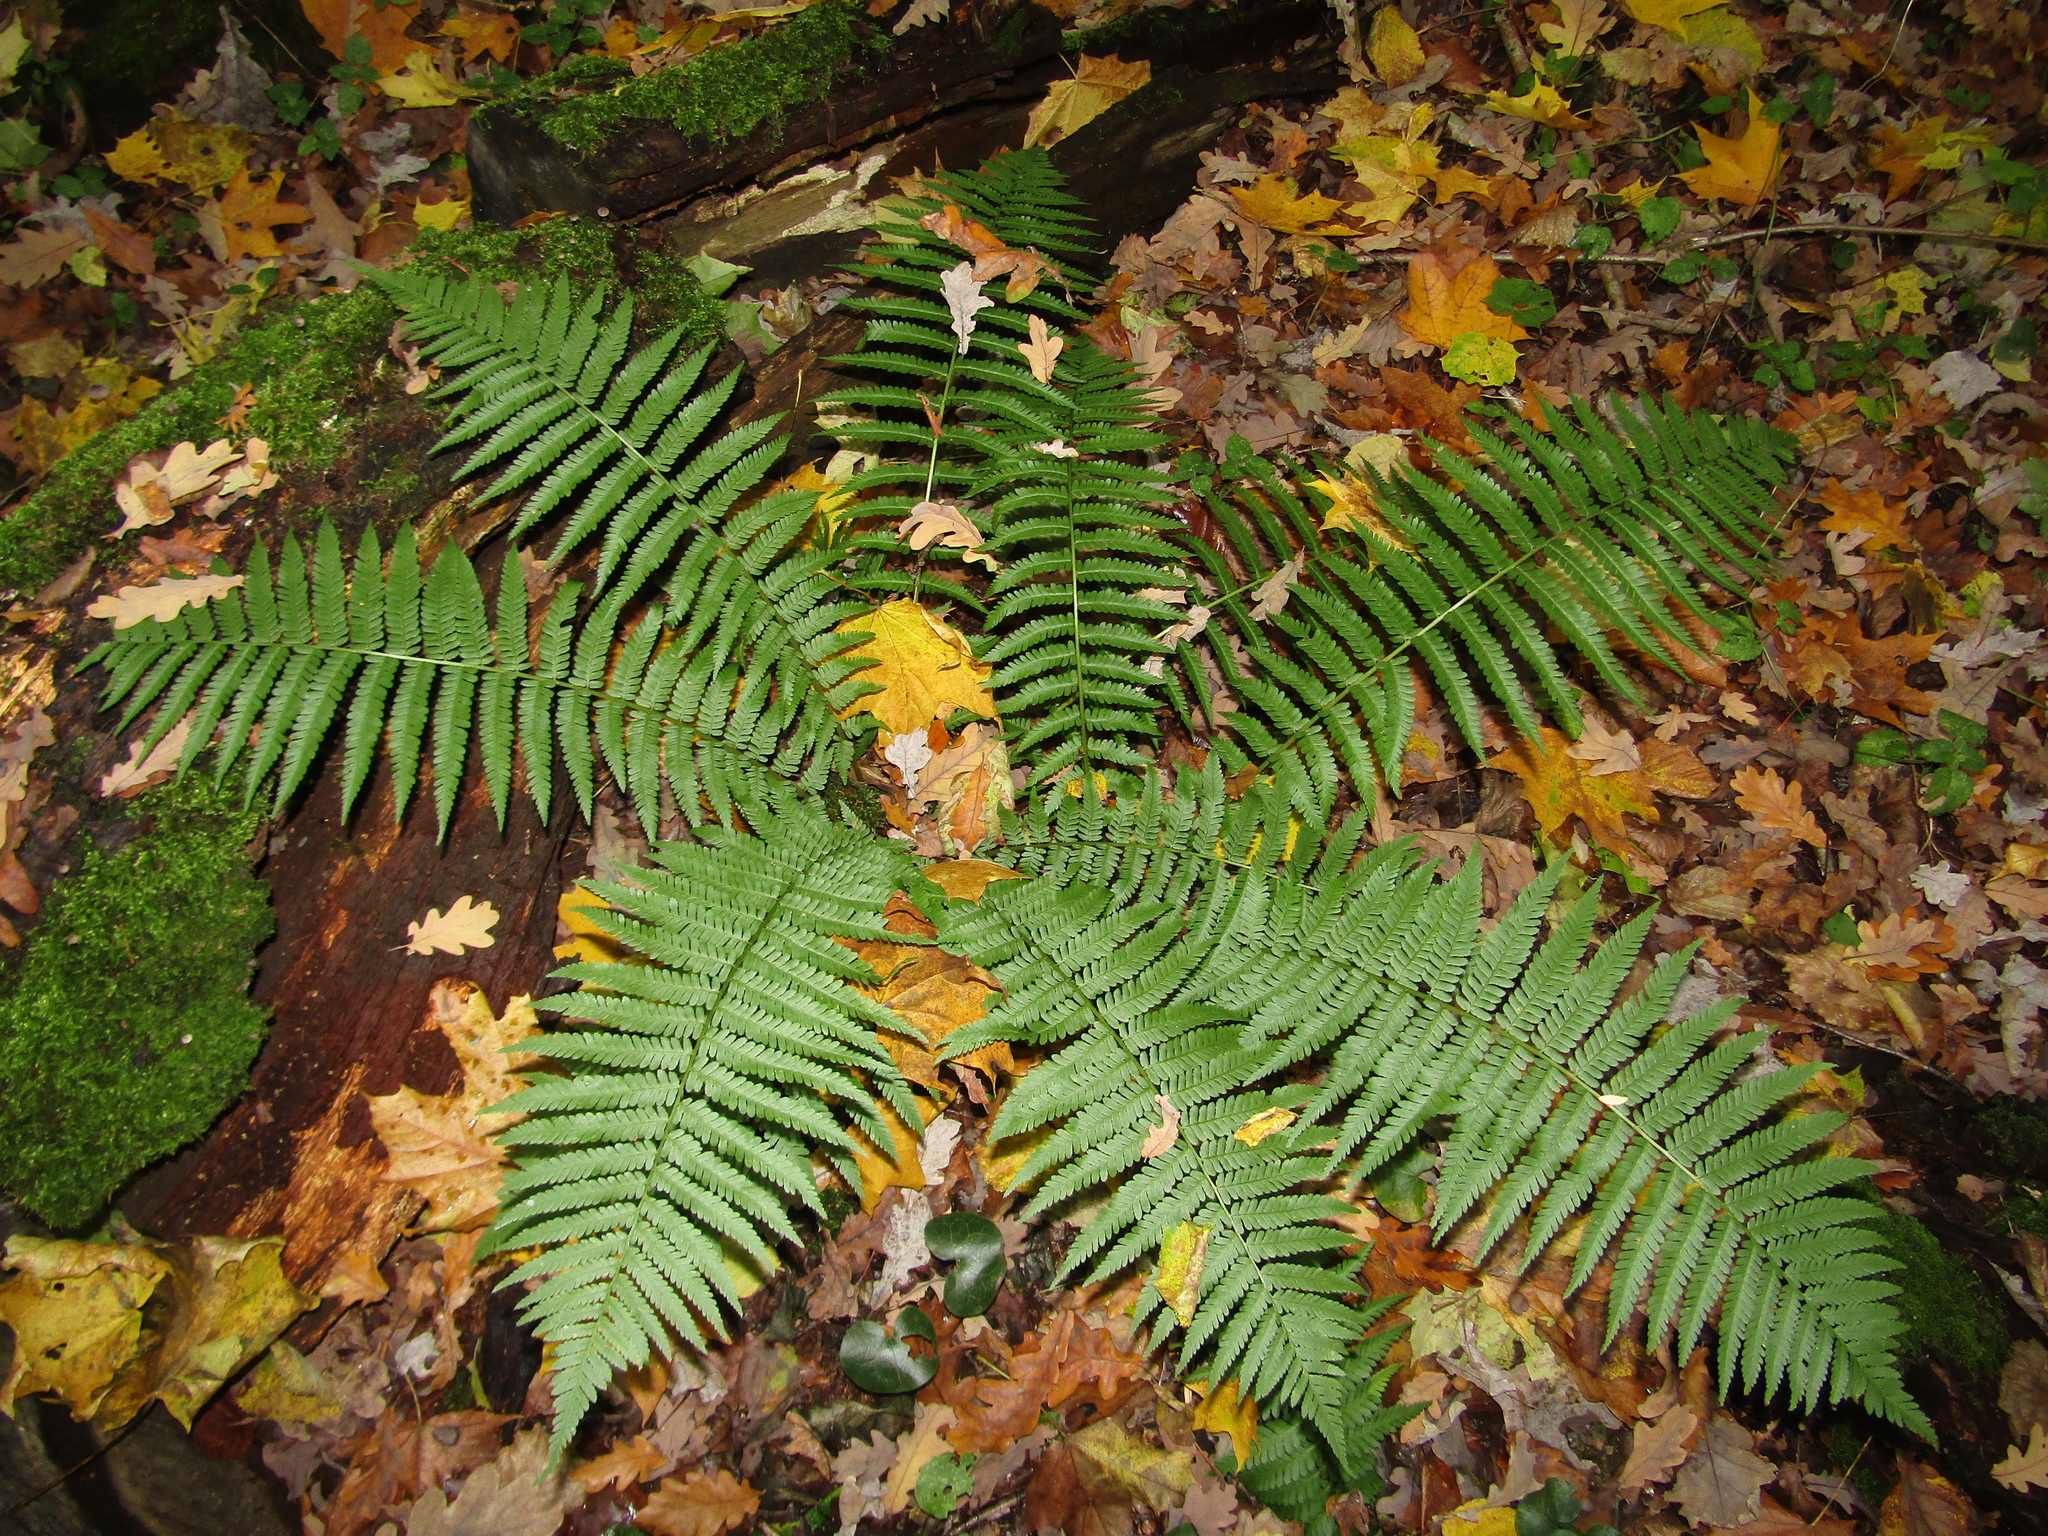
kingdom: Plantae
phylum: Tracheophyta
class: Polypodiopsida
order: Polypodiales
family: Dryopteridaceae
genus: Dryopteris
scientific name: Dryopteris filix-mas
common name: Male fern
